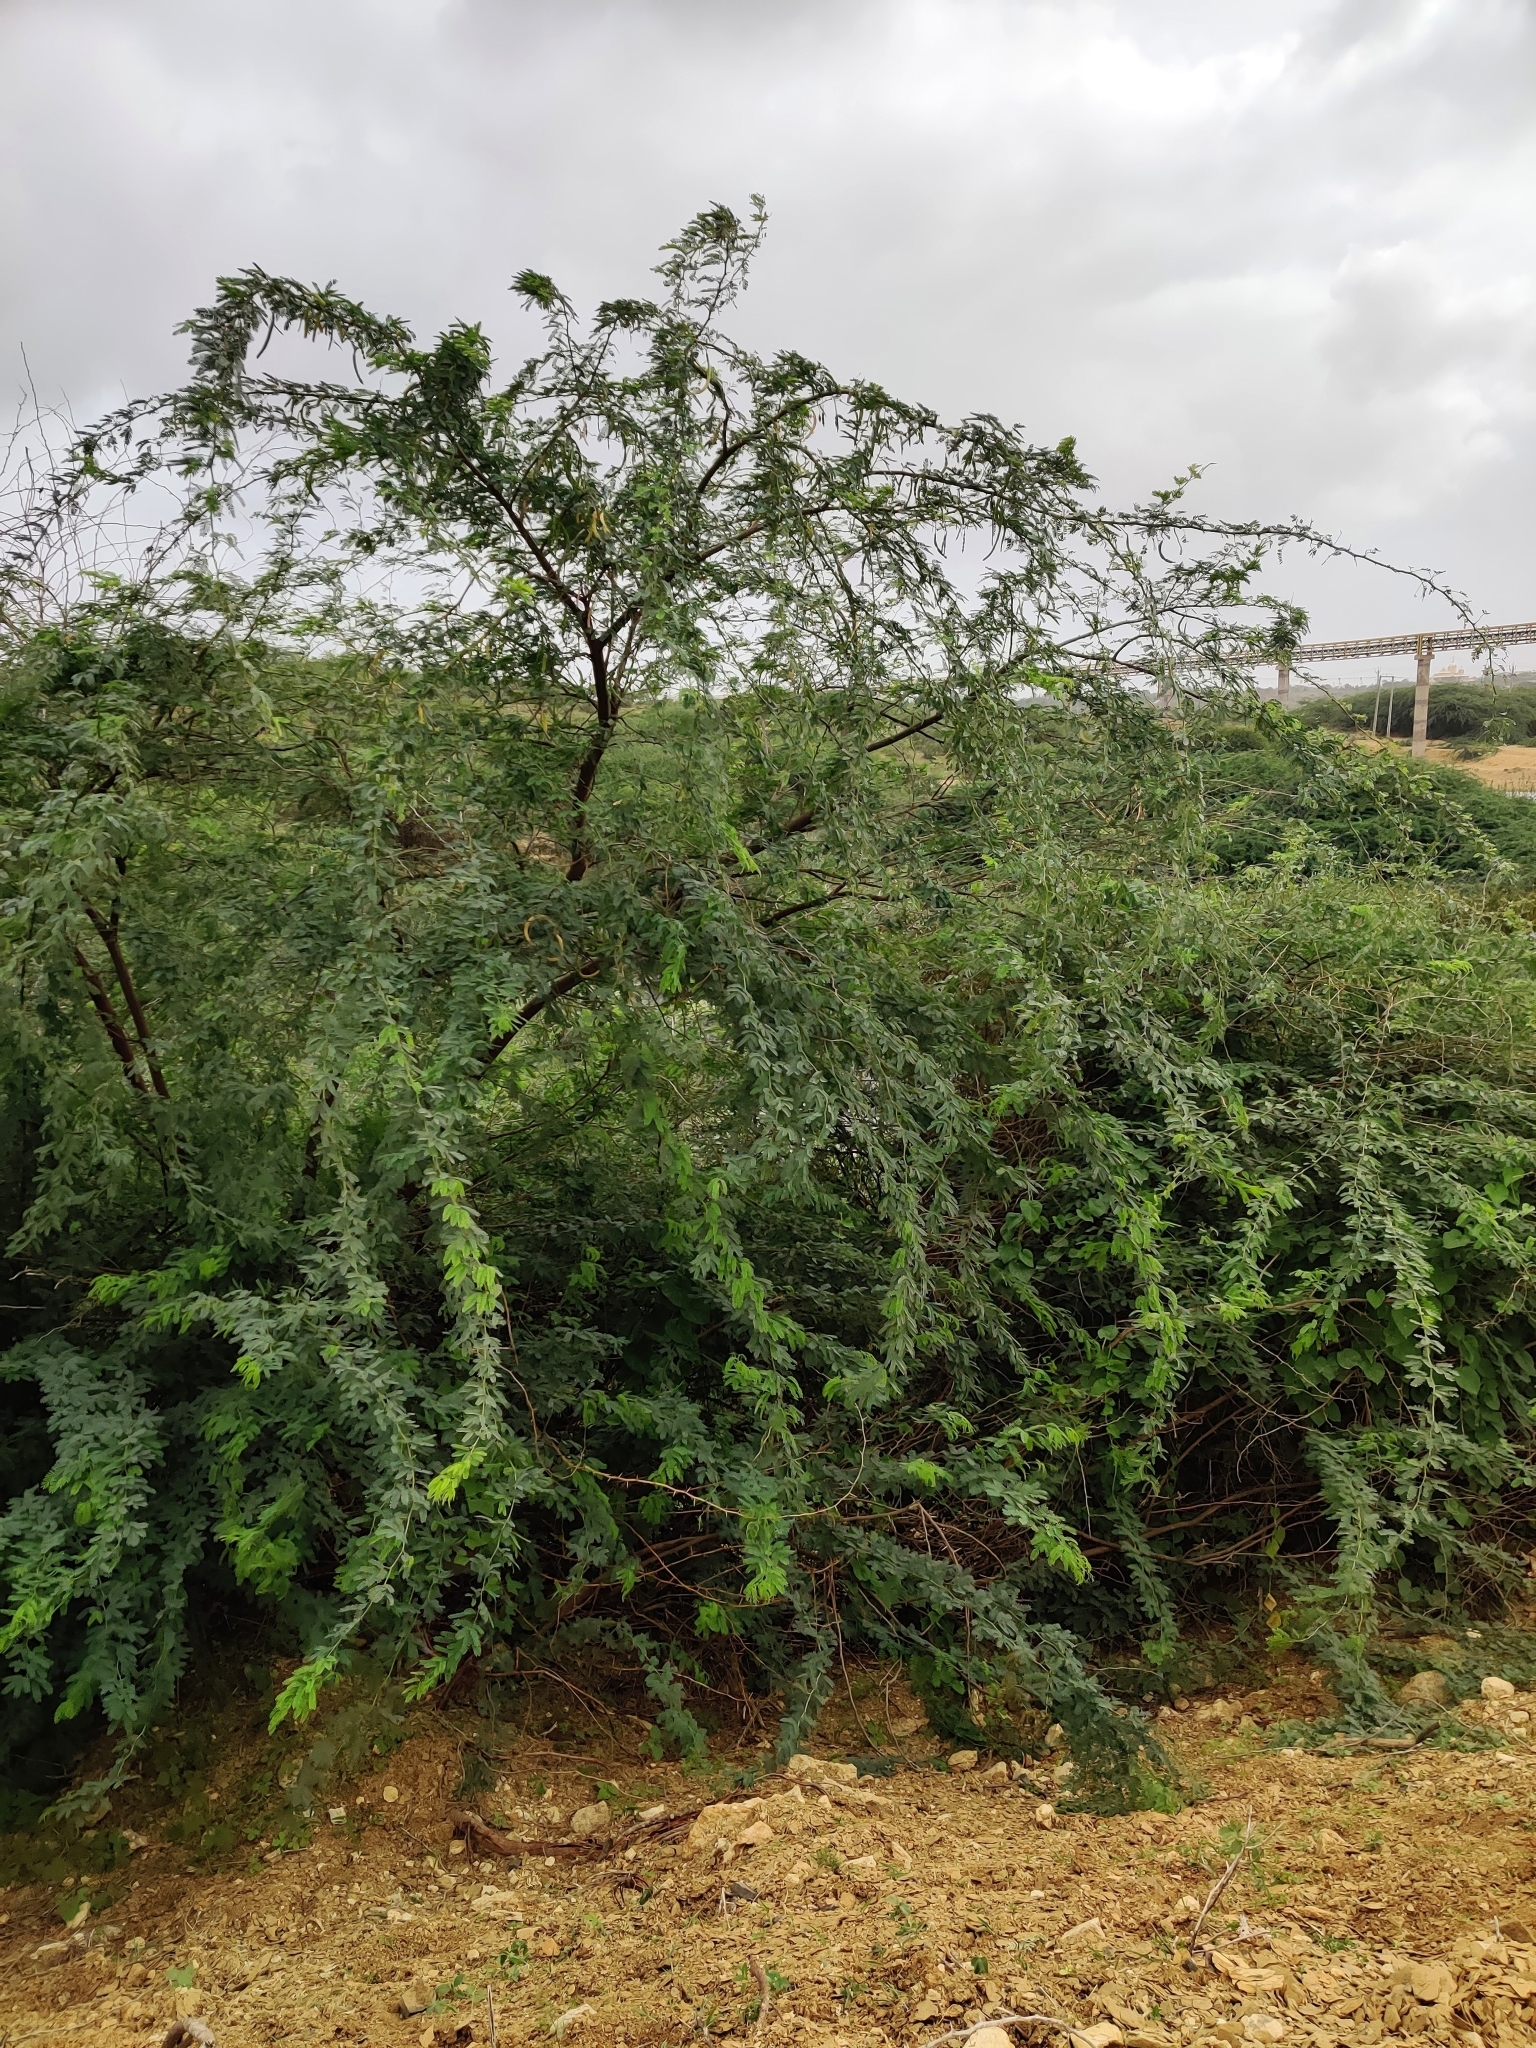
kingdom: Plantae
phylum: Tracheophyta
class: Magnoliopsida
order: Fabales
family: Fabaceae
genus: Prosopis
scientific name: Prosopis juliflora
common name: Mesquite
